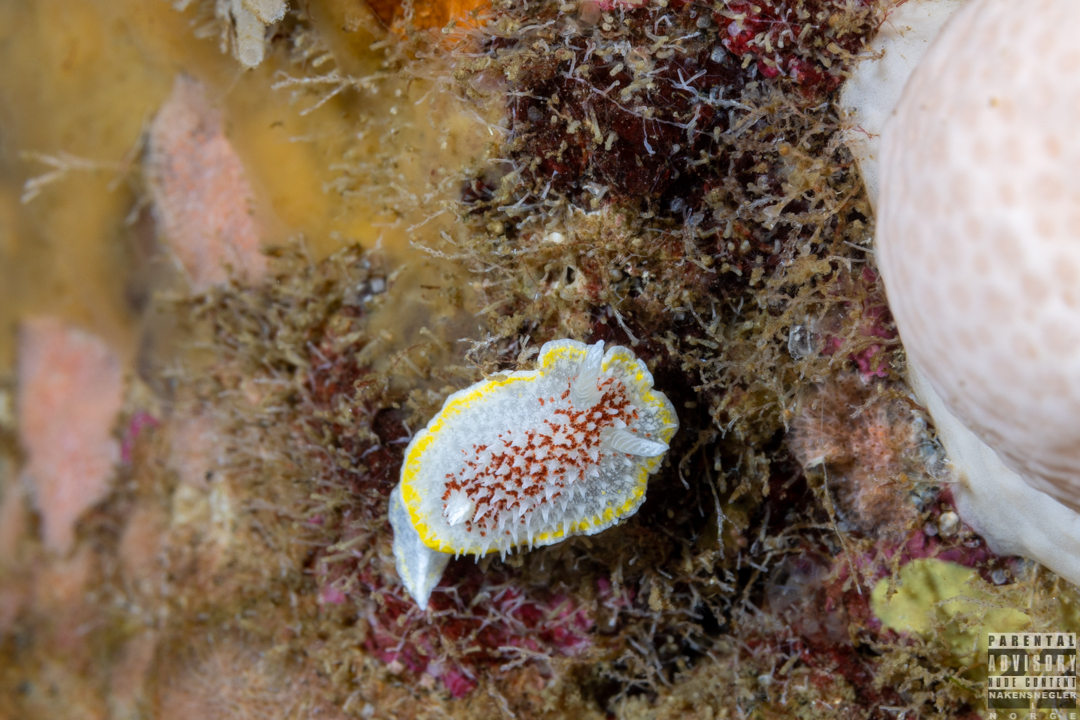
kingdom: Animalia
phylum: Mollusca
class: Gastropoda
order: Nudibranchia
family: Calycidorididae
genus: Diaphorodoris
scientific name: Diaphorodoris luteocincta
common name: Fried egg nudibranch
